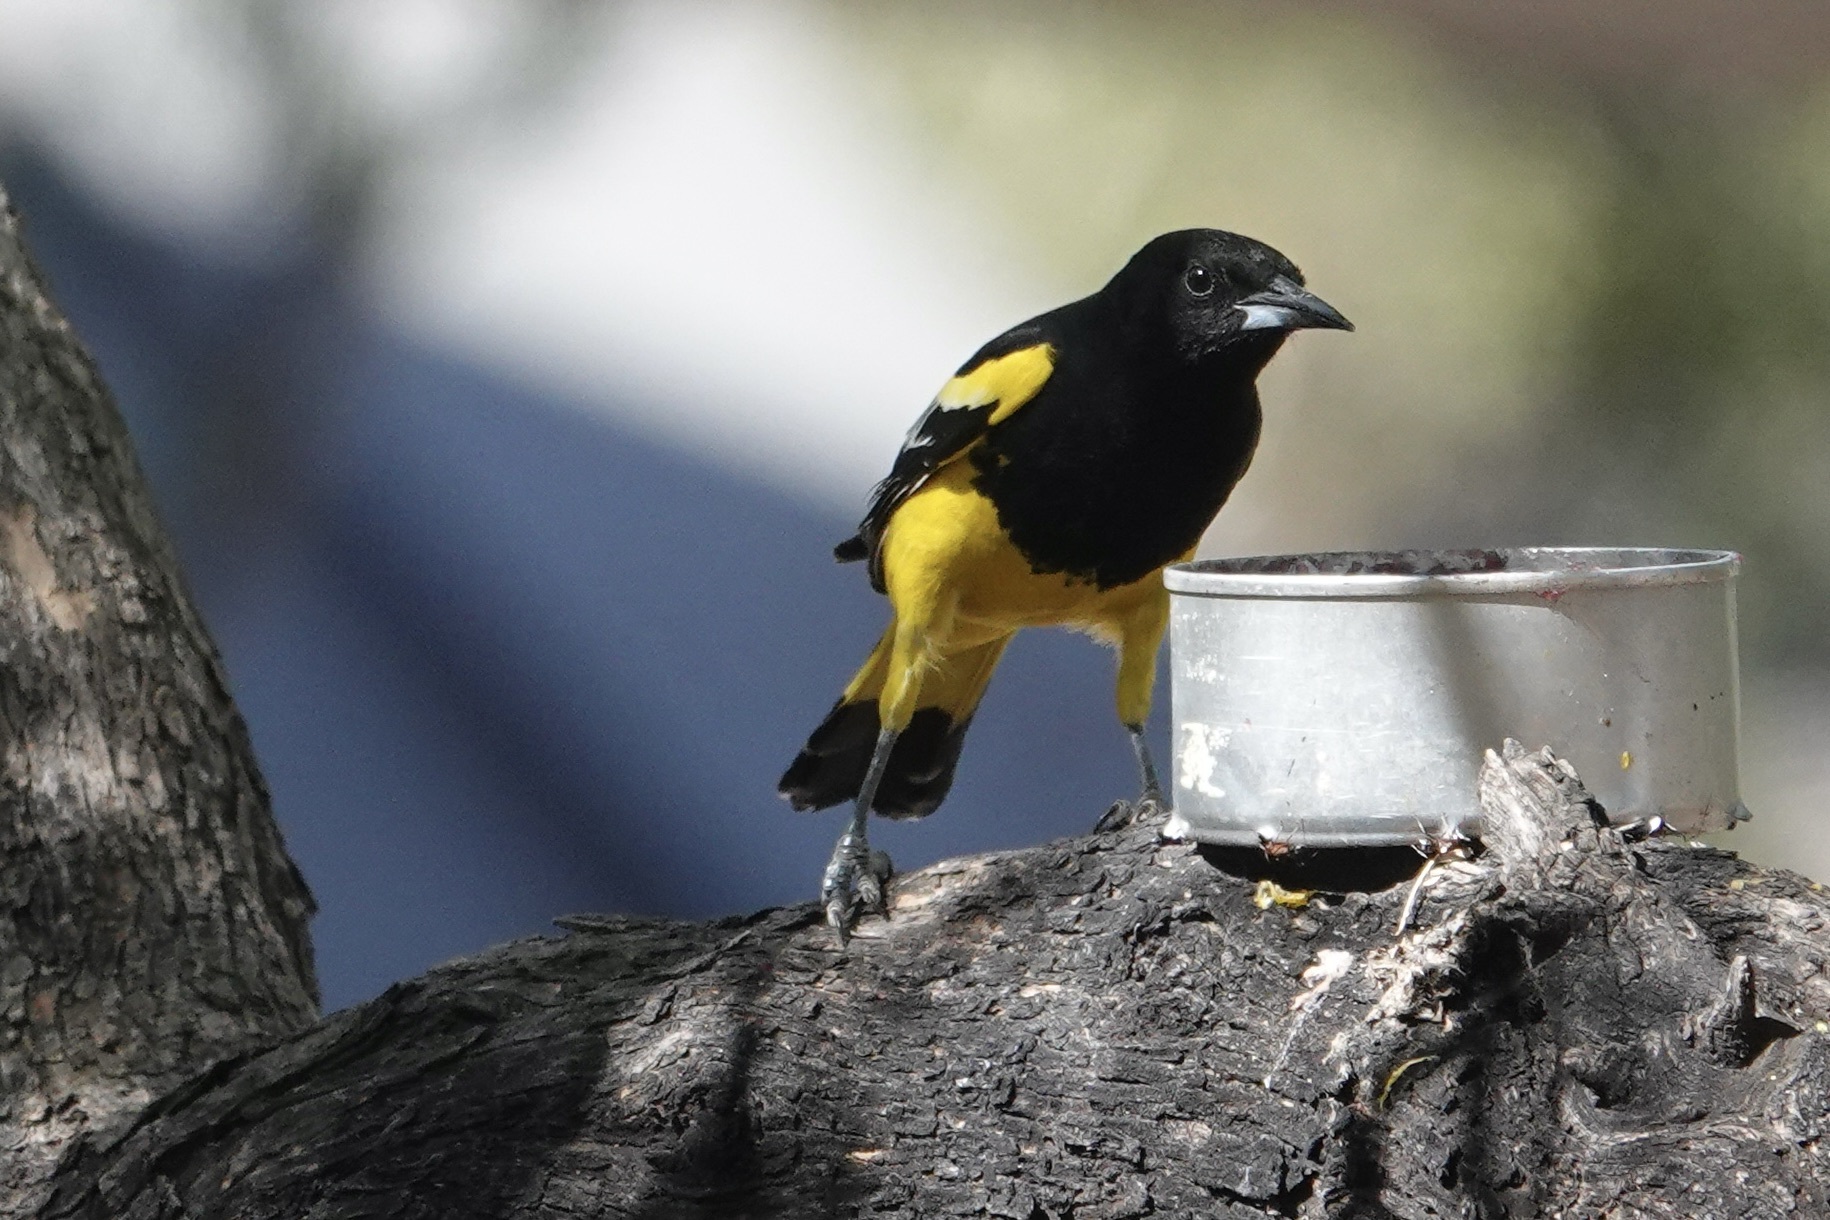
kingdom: Animalia
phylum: Chordata
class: Aves
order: Passeriformes
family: Icteridae
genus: Icterus
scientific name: Icterus parisorum
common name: Scott's oriole
